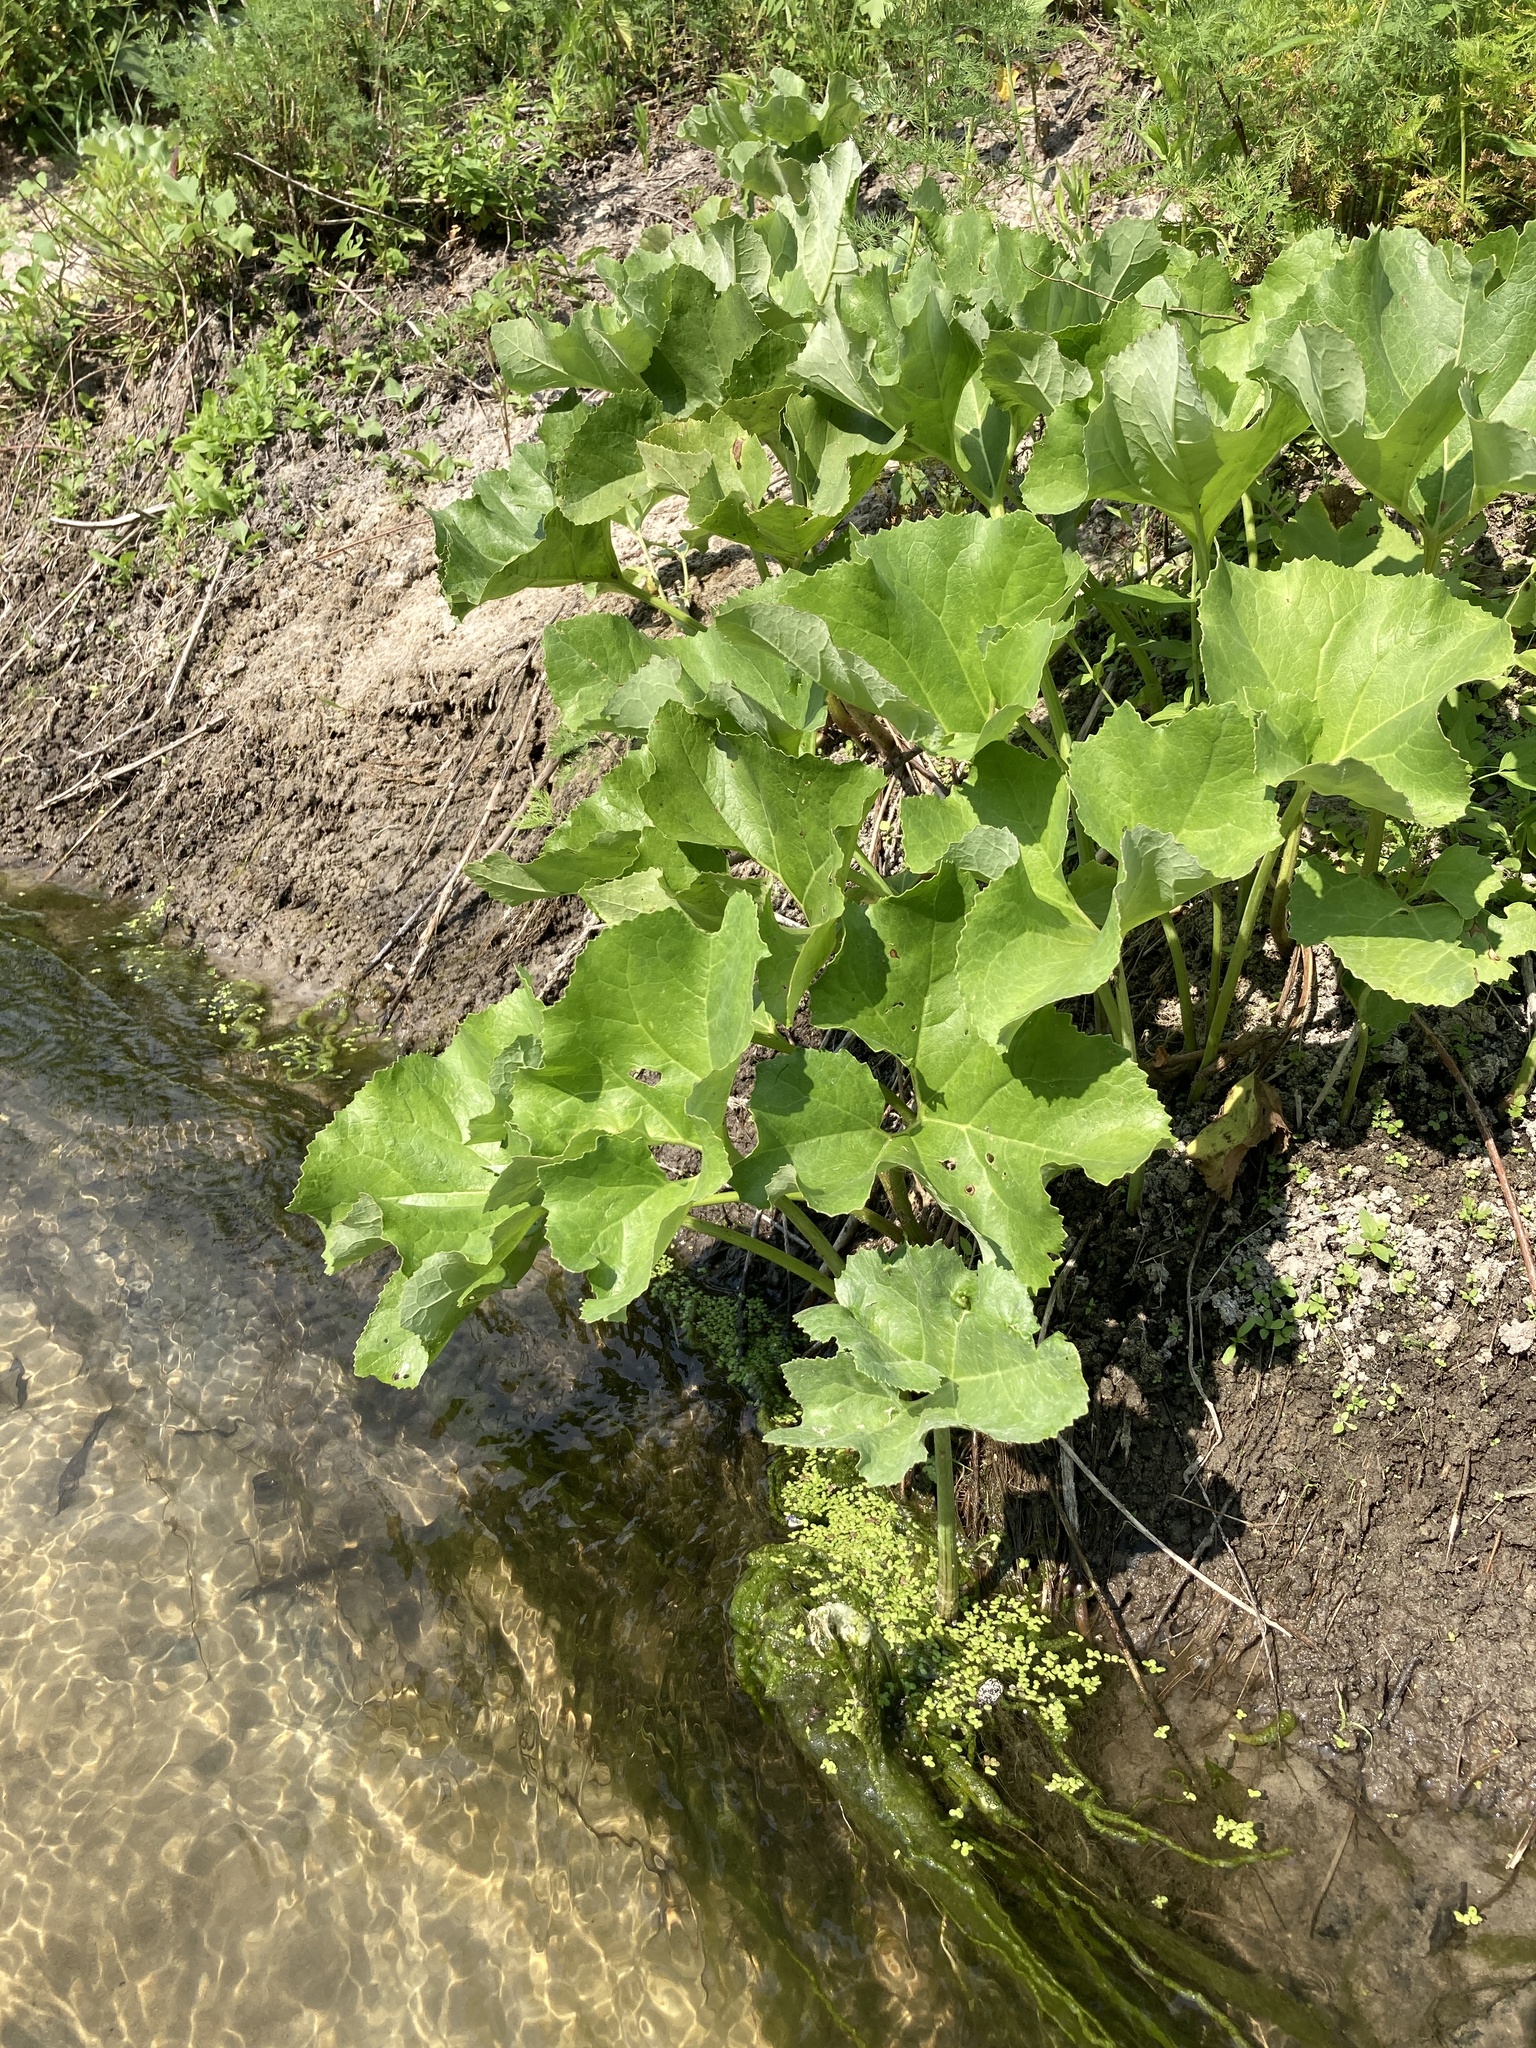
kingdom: Plantae
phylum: Tracheophyta
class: Magnoliopsida
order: Asterales
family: Asteraceae
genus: Petasites
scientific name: Petasites spurius
